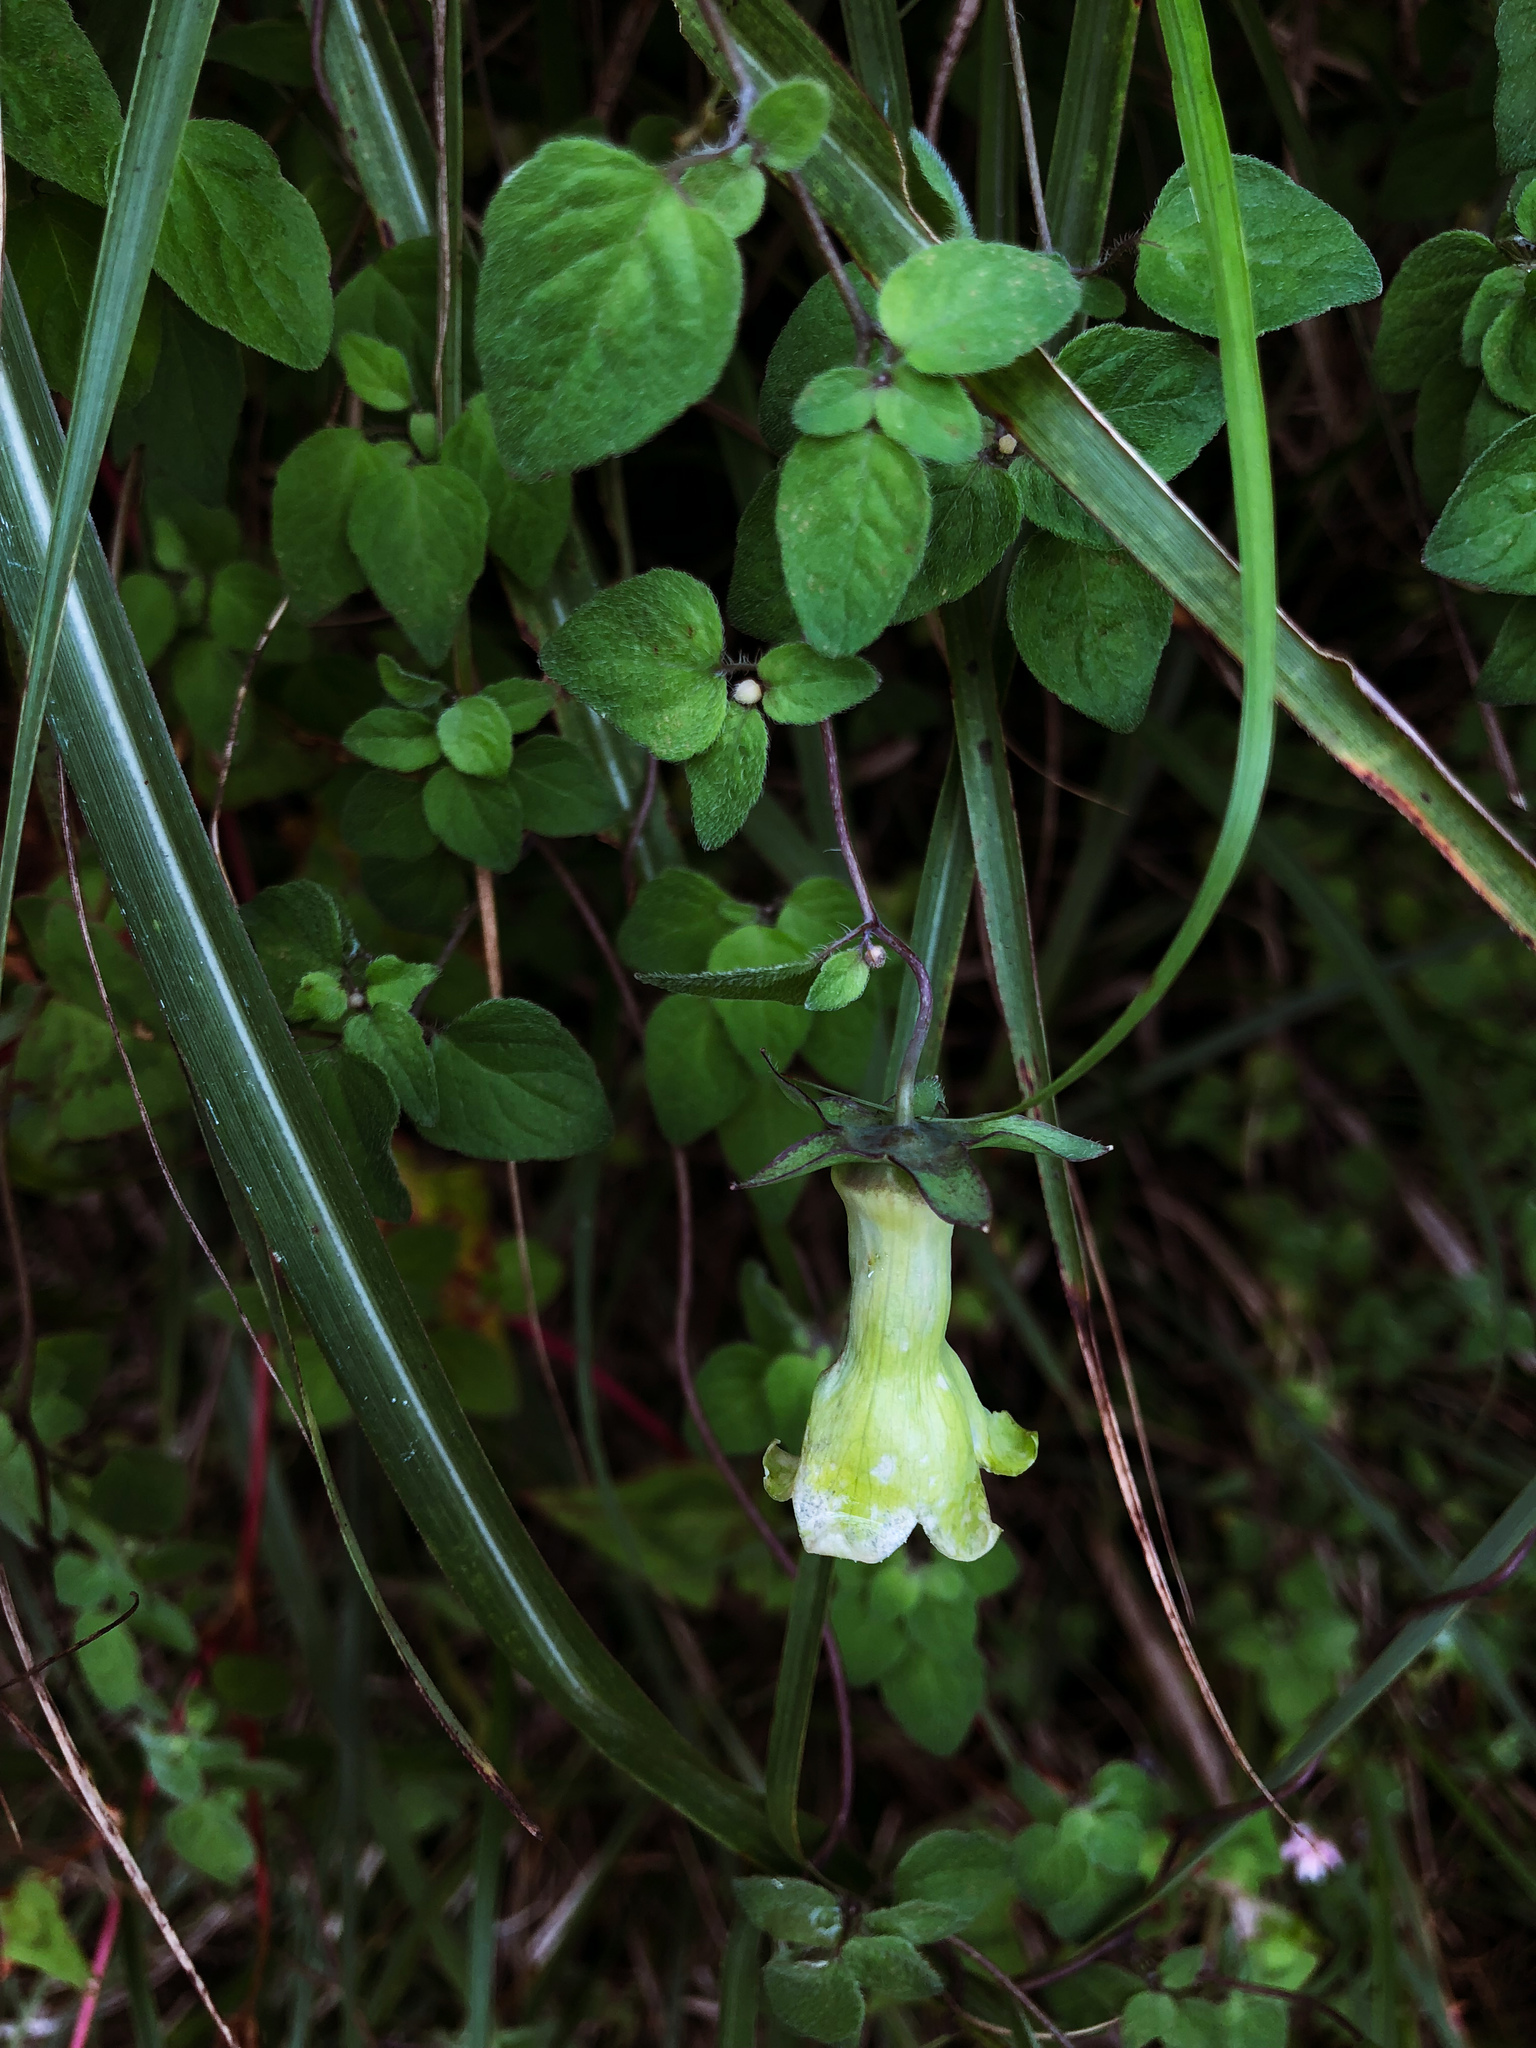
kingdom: Plantae
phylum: Tracheophyta
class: Magnoliopsida
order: Asterales
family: Campanulaceae
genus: Codonopsis
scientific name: Codonopsis kawakamii
